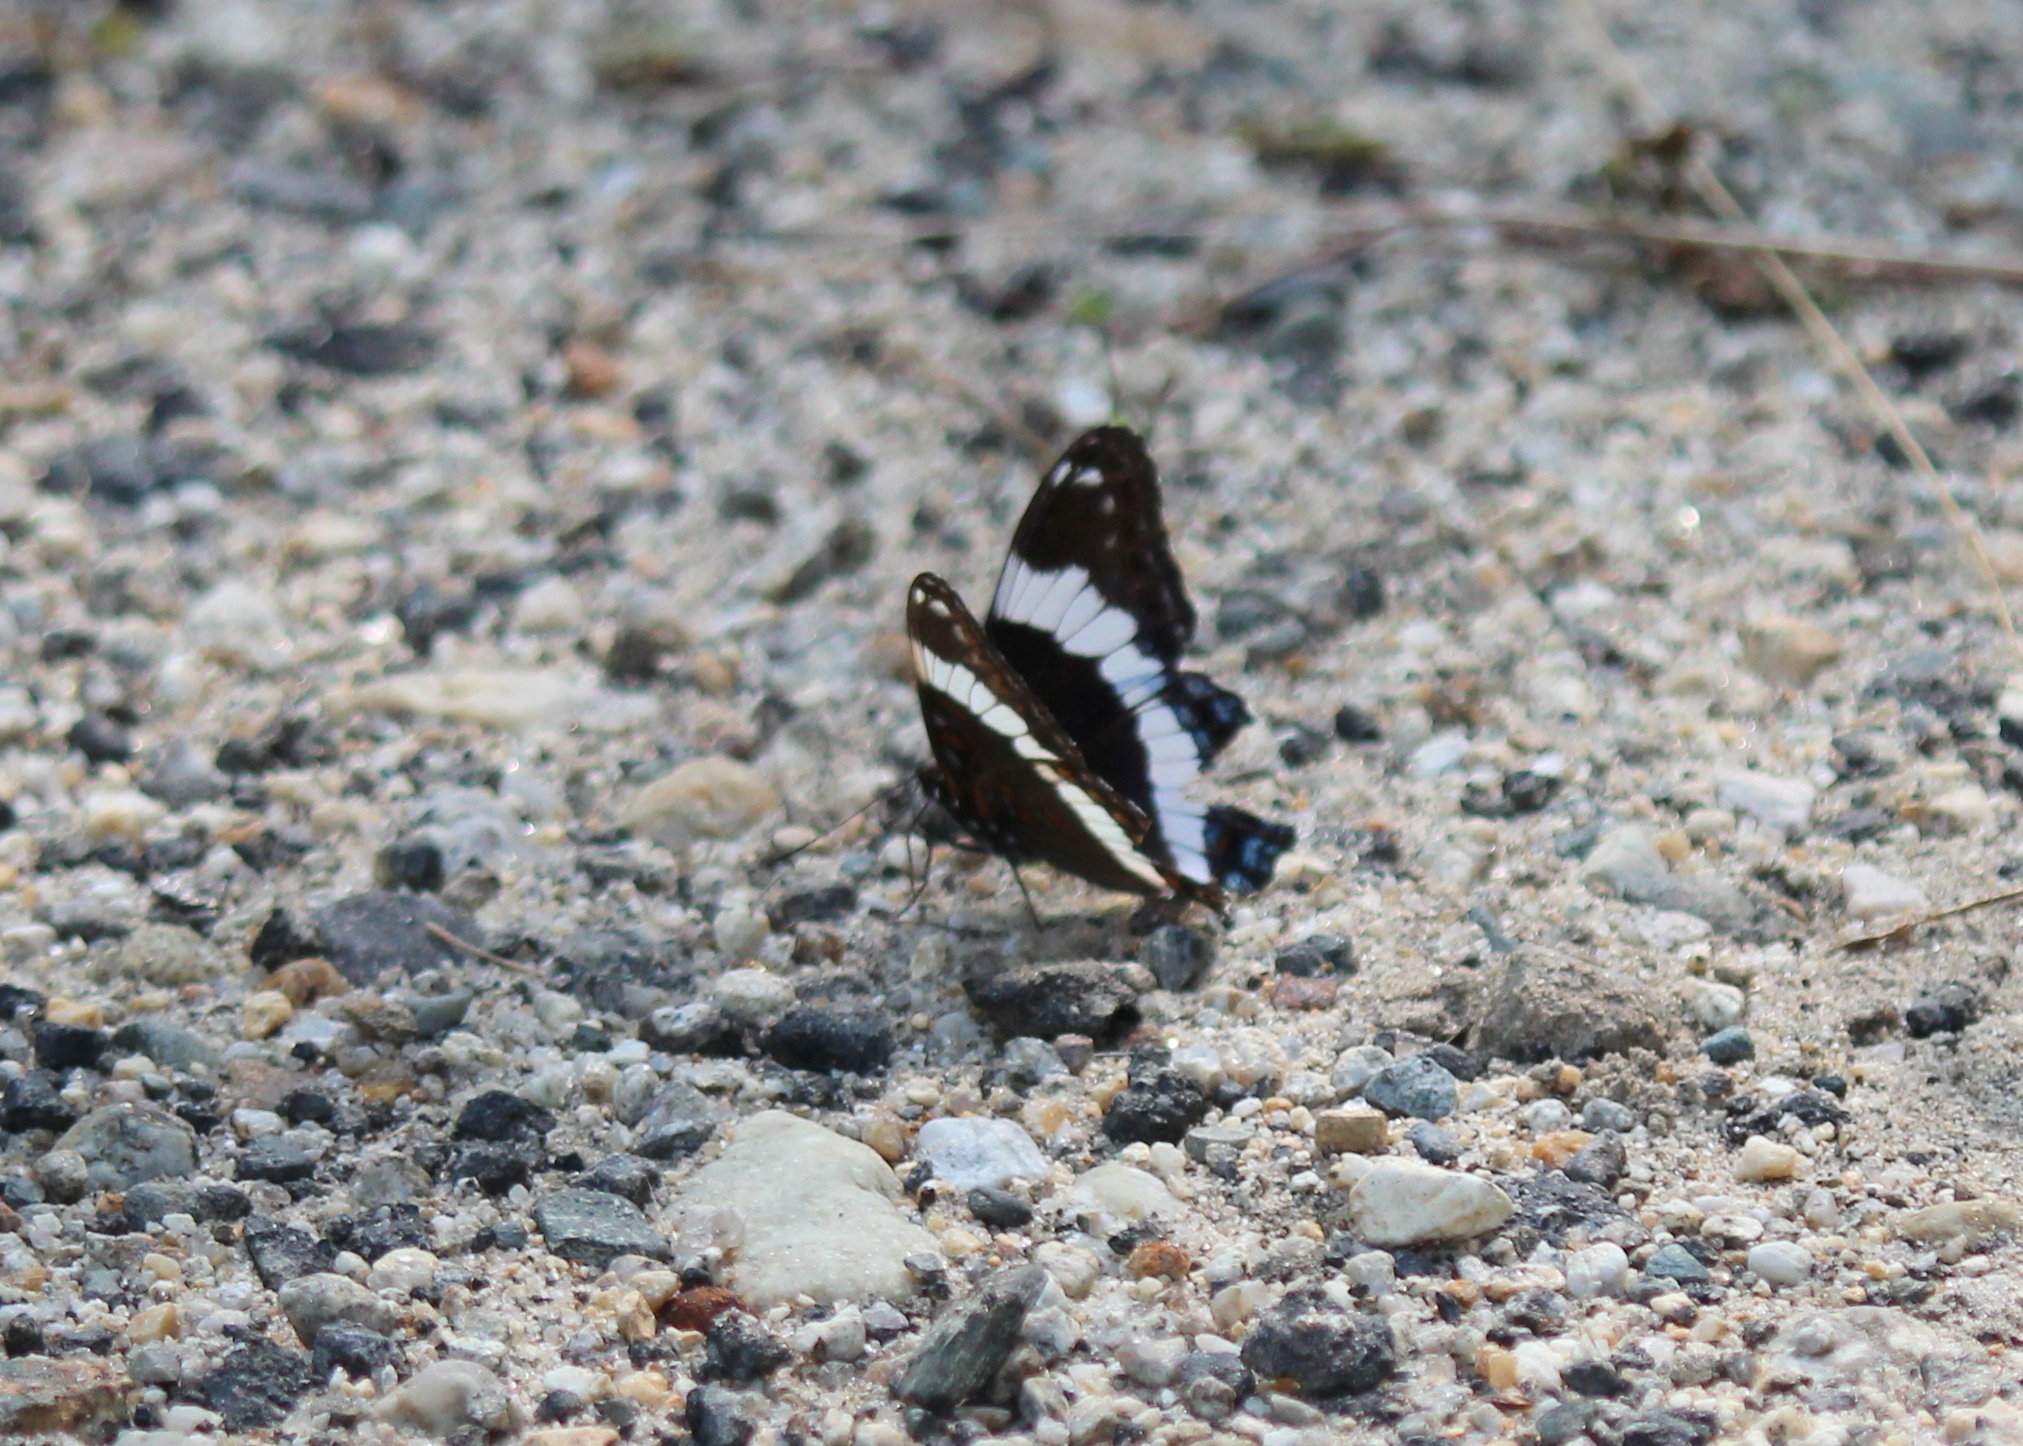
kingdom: Animalia
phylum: Arthropoda
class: Insecta
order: Lepidoptera
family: Nymphalidae
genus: Limenitis
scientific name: Limenitis arthemis
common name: Red-spotted admiral
